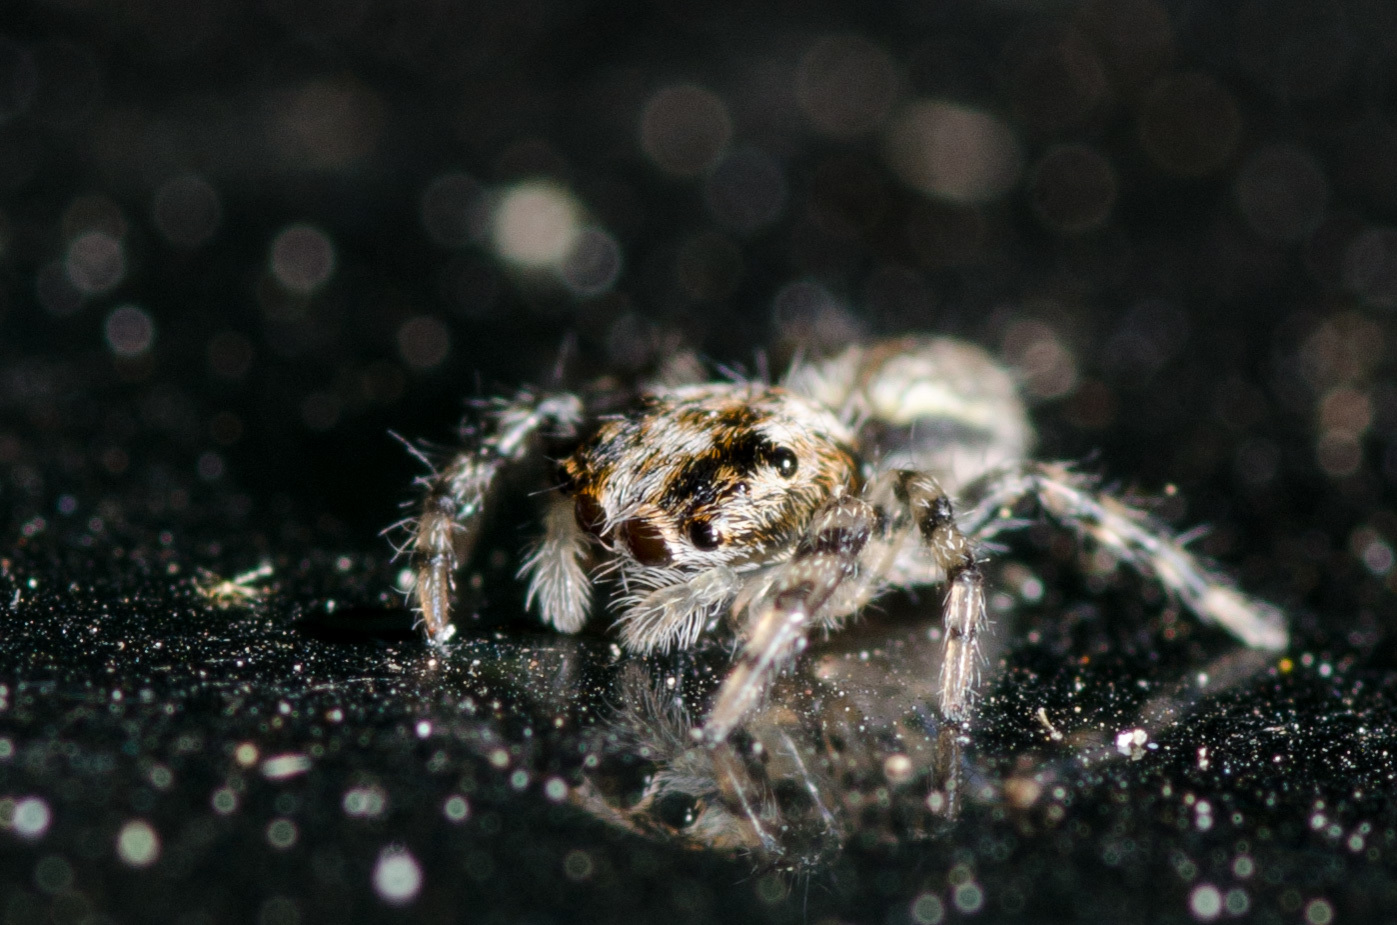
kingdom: Animalia
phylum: Arthropoda
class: Arachnida
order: Araneae
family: Salticidae
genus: Platycryptus
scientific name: Platycryptus undatus
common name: Tan jumping spider
